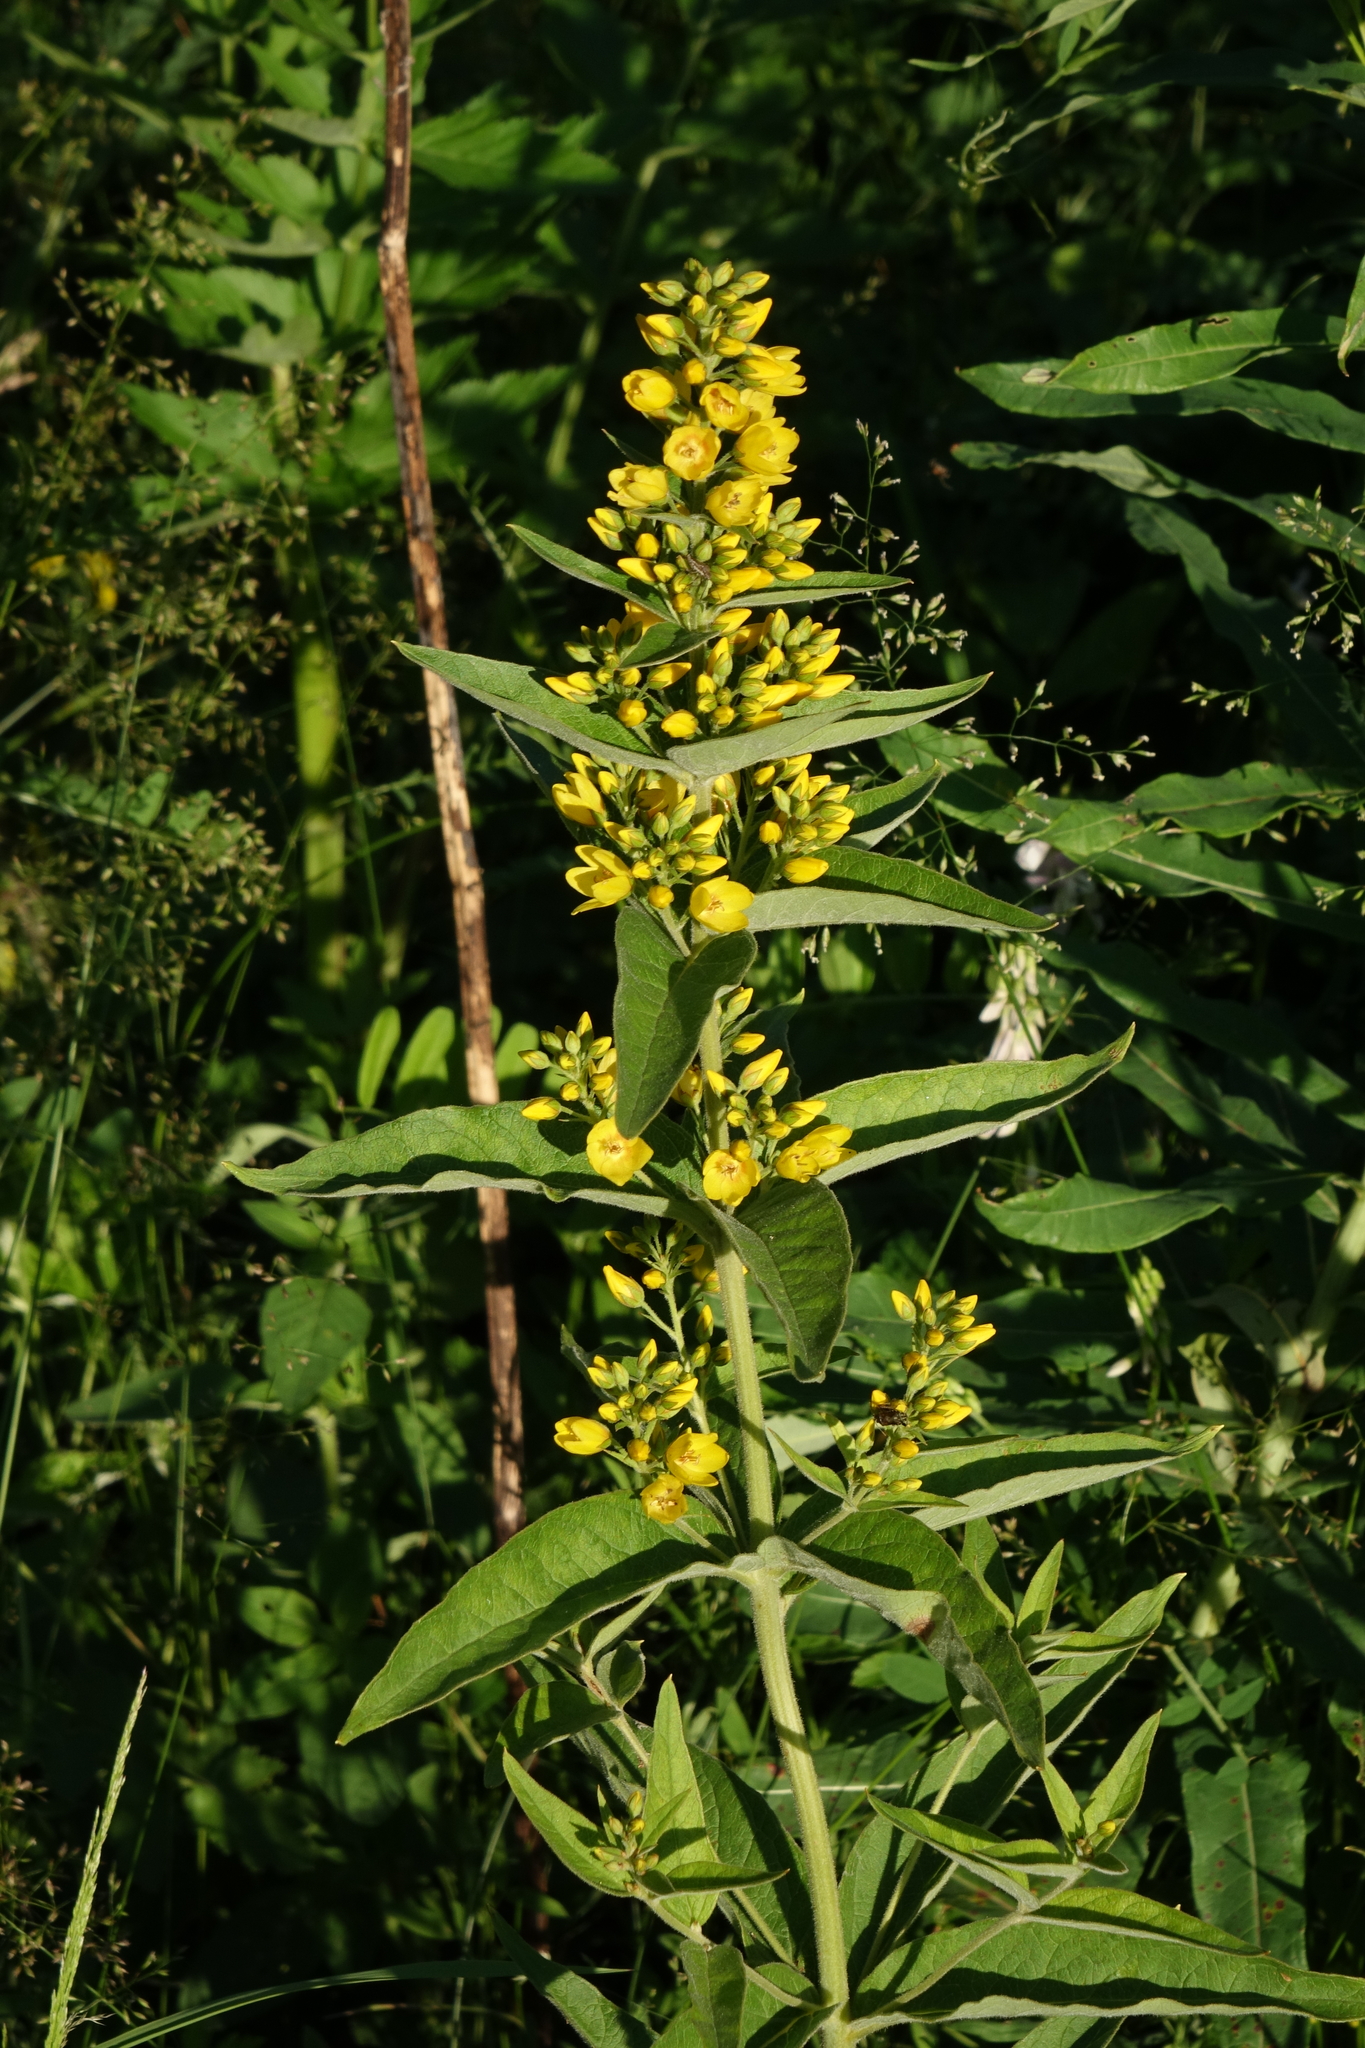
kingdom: Plantae
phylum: Tracheophyta
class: Magnoliopsida
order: Ericales
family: Primulaceae
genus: Lysimachia
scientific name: Lysimachia vulgaris
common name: Yellow loosestrife
